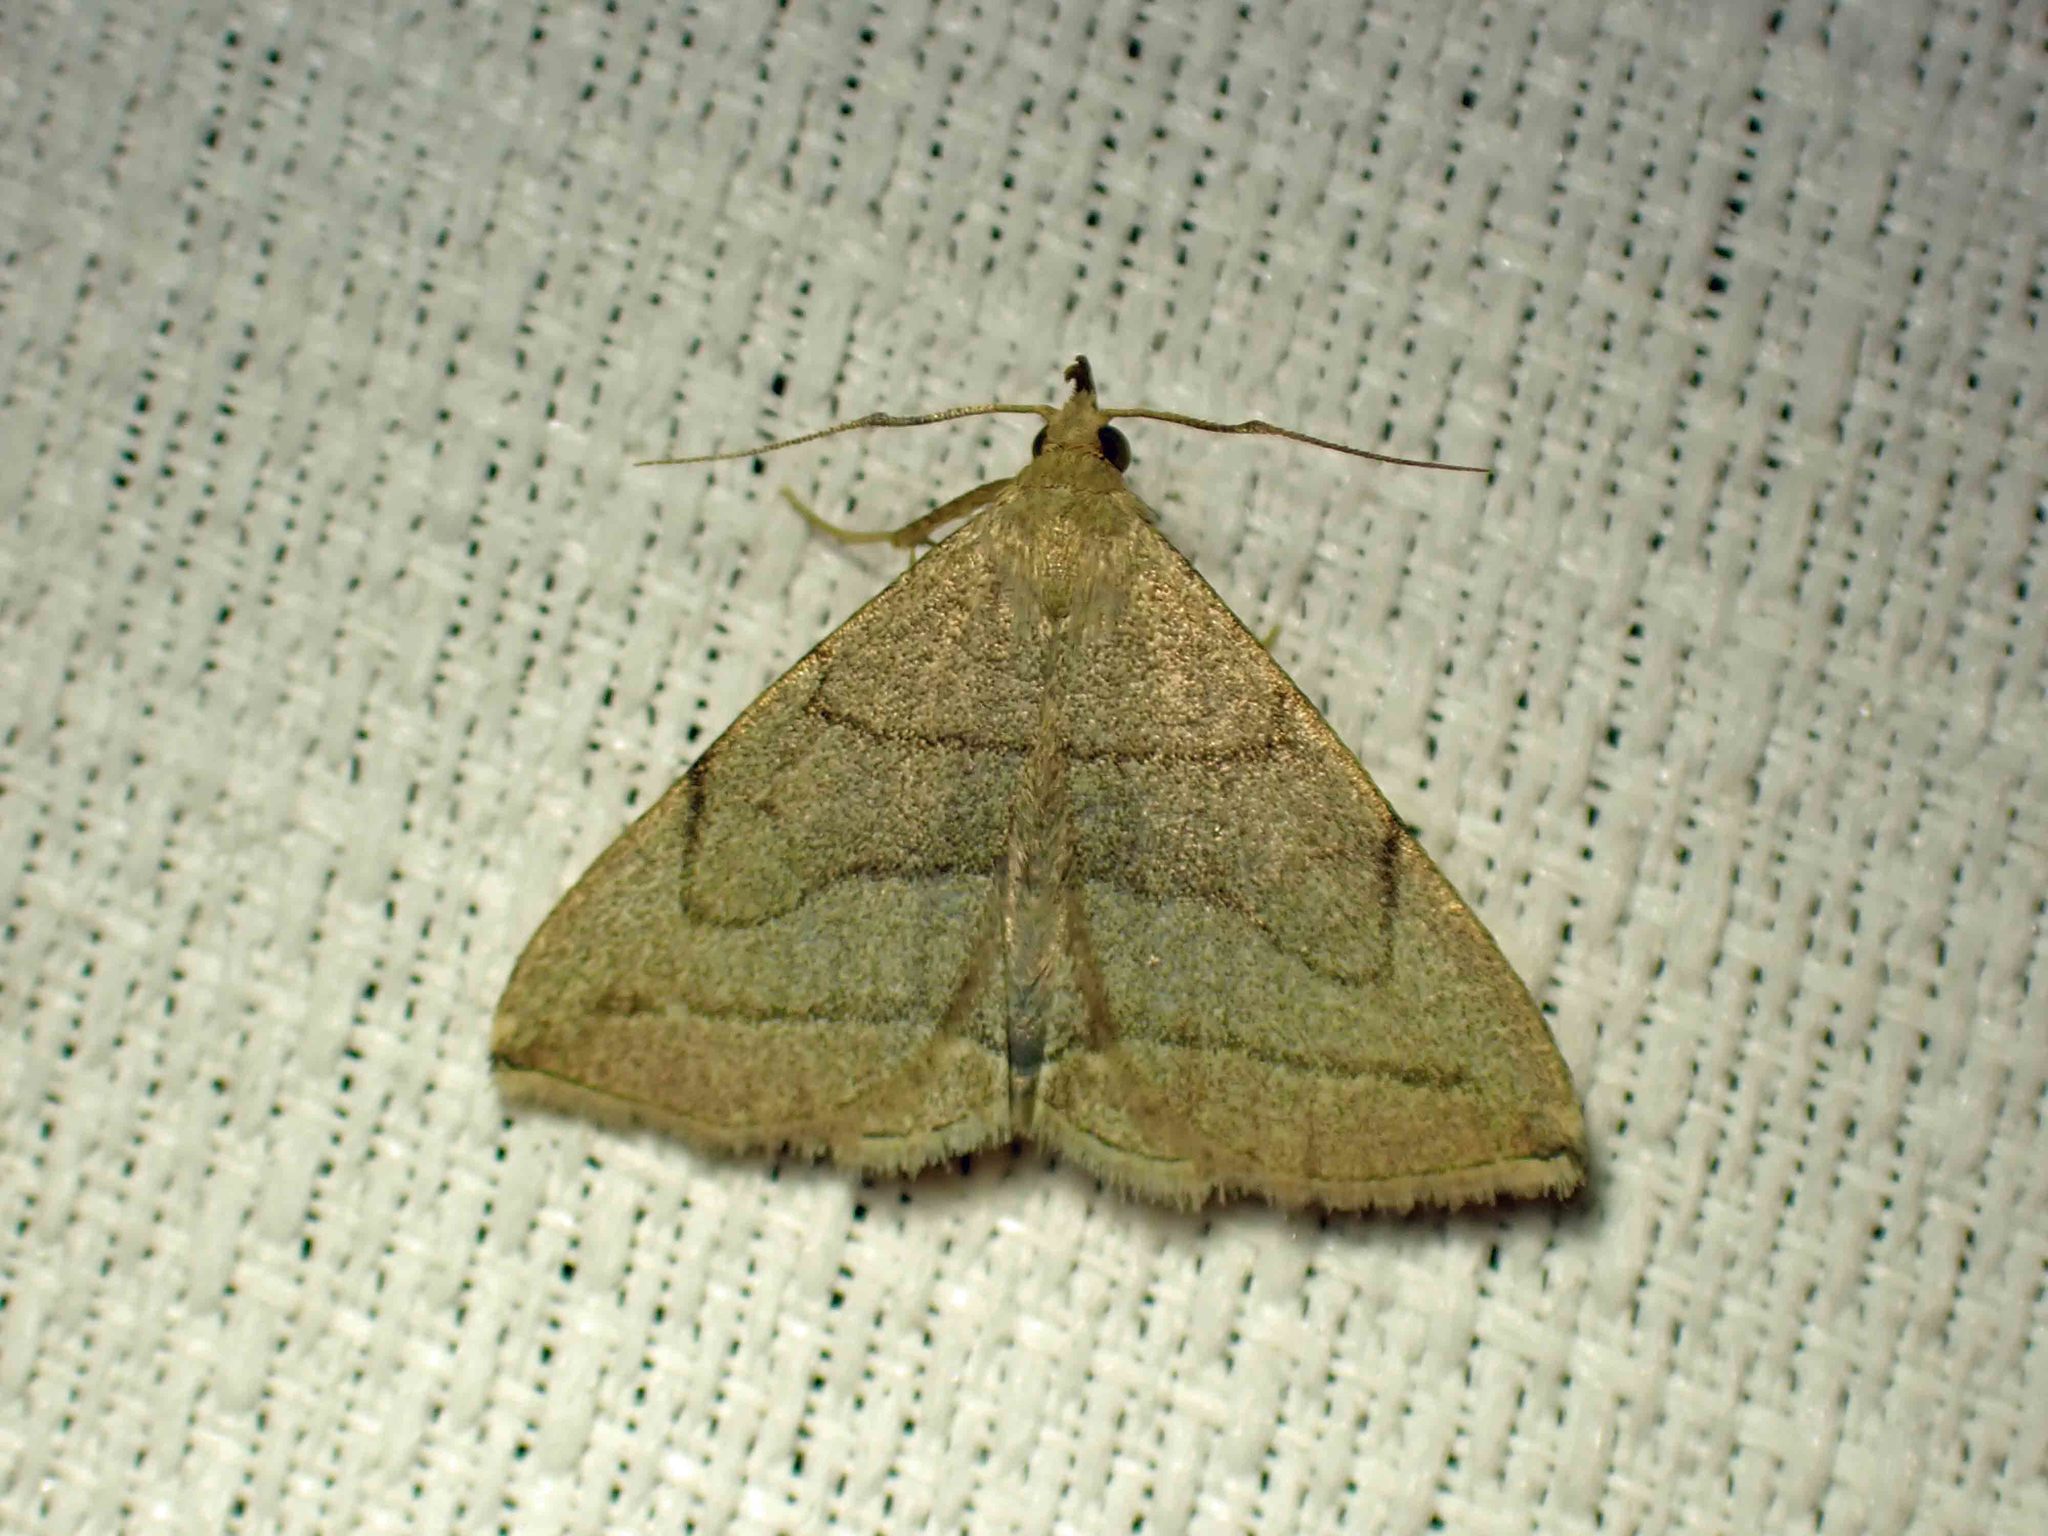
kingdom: Animalia
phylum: Arthropoda
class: Insecta
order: Lepidoptera
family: Erebidae
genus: Zanclognatha
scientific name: Zanclognatha pedipilalis
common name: Grayish fan-foot
